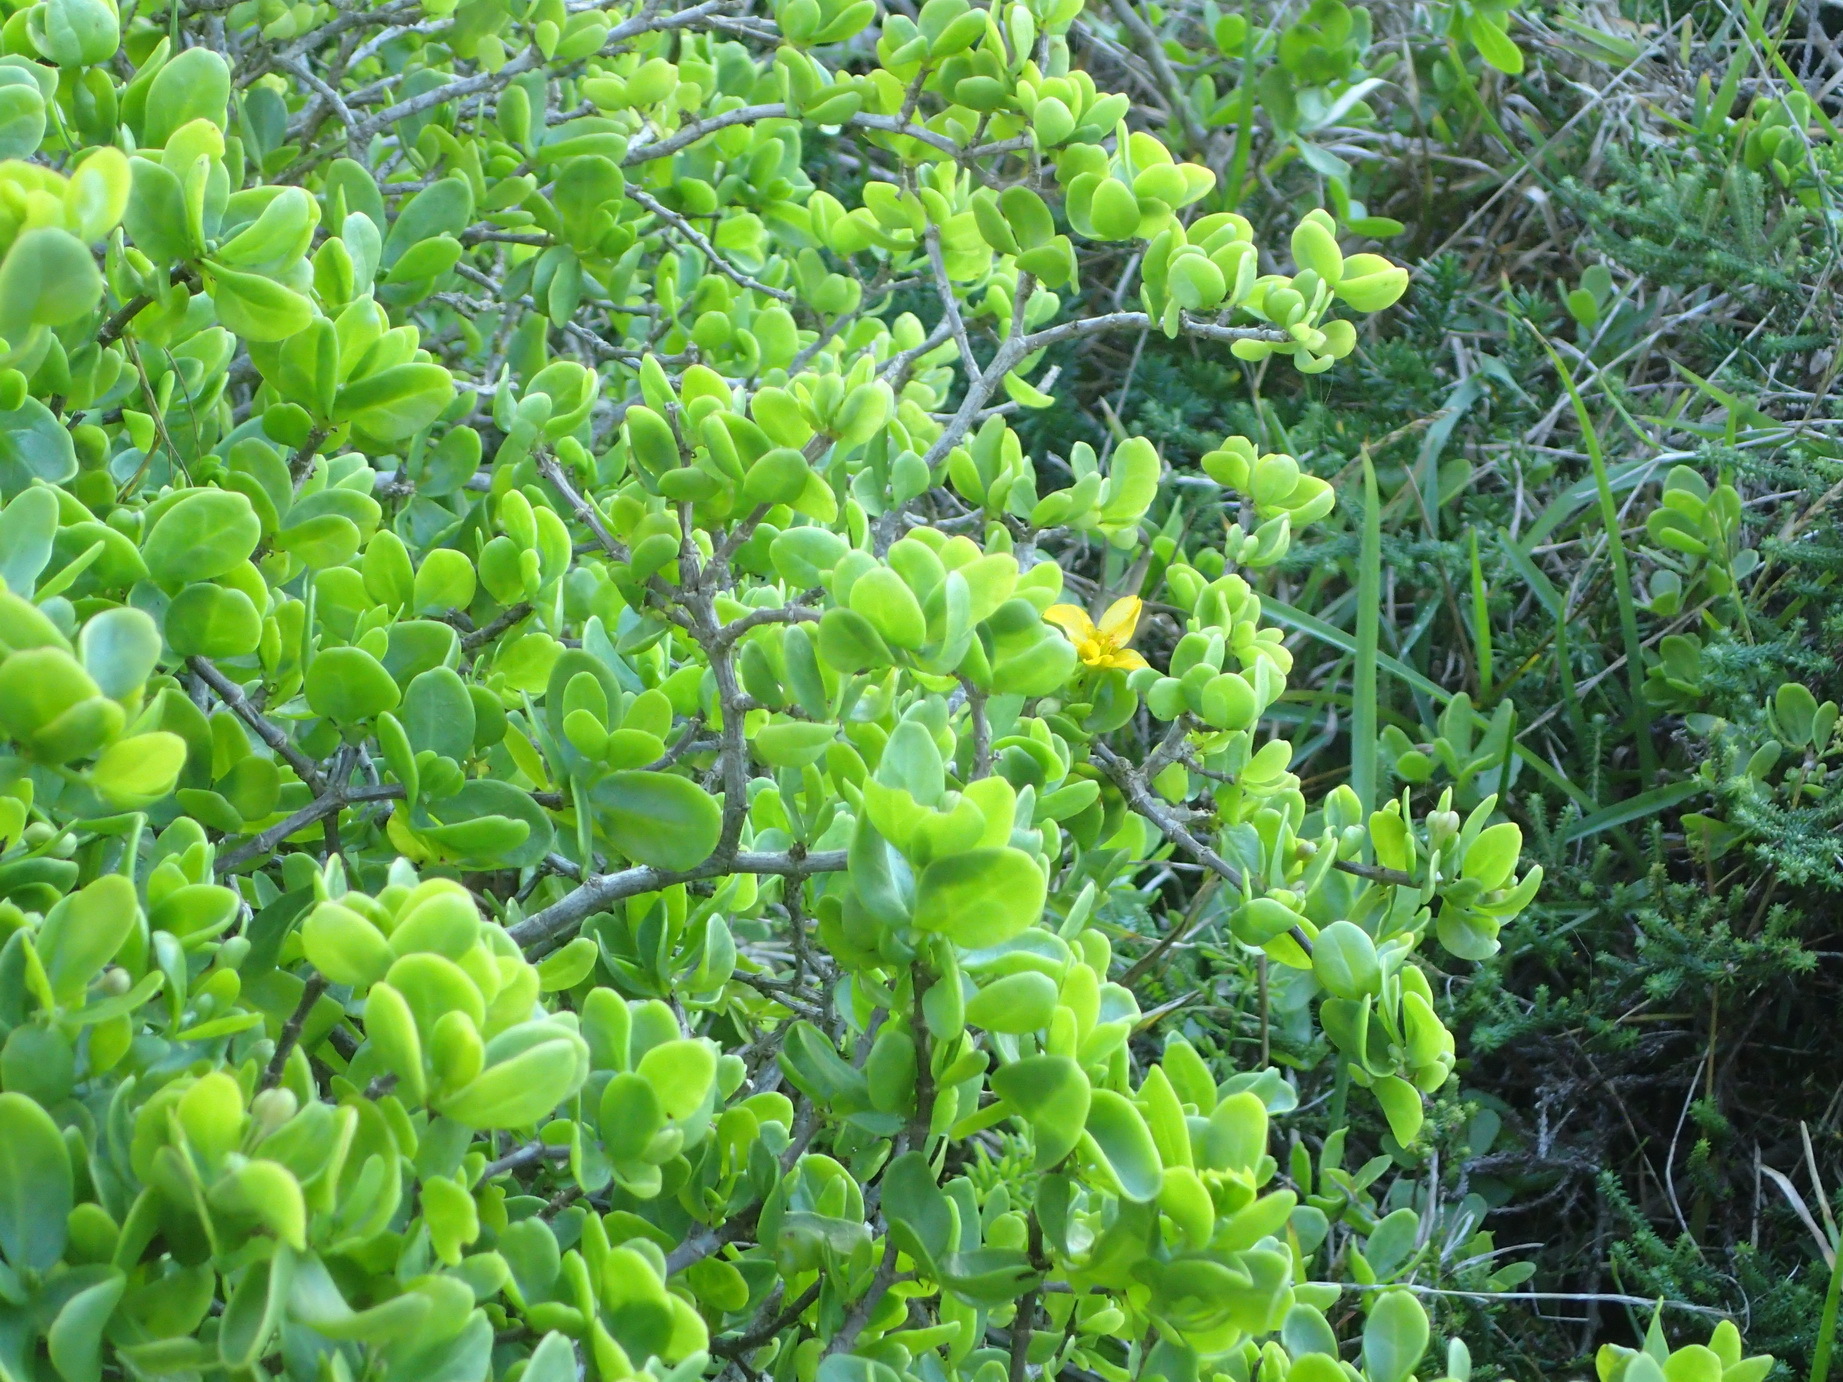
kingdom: Plantae
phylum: Tracheophyta
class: Magnoliopsida
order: Zygophyllales
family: Zygophyllaceae
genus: Roepera
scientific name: Roepera morgsana
